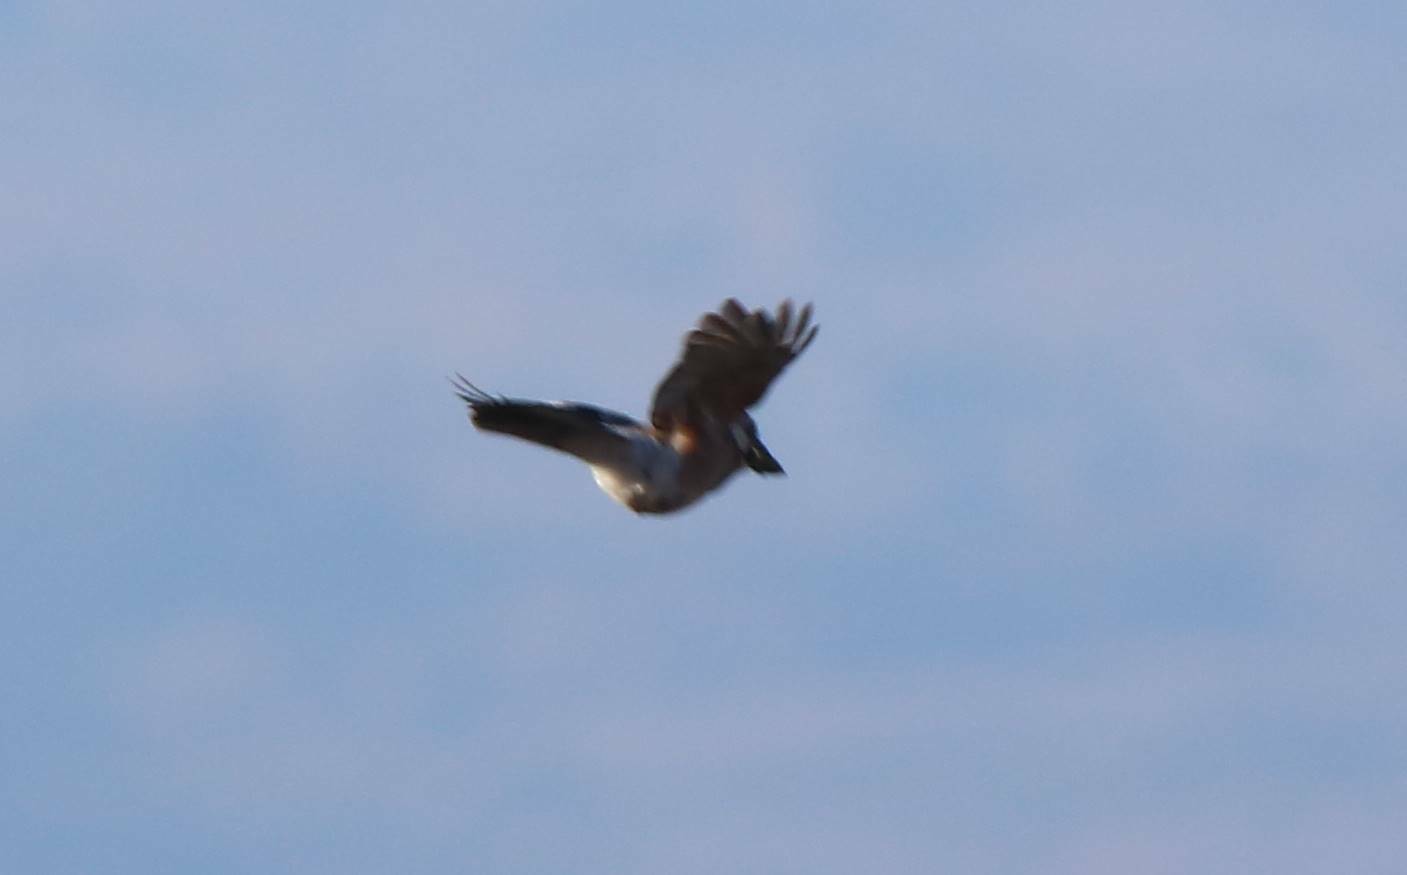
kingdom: Animalia
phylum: Chordata
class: Aves
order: Passeriformes
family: Corvidae
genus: Garrulus
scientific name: Garrulus glandarius
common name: Eurasian jay
